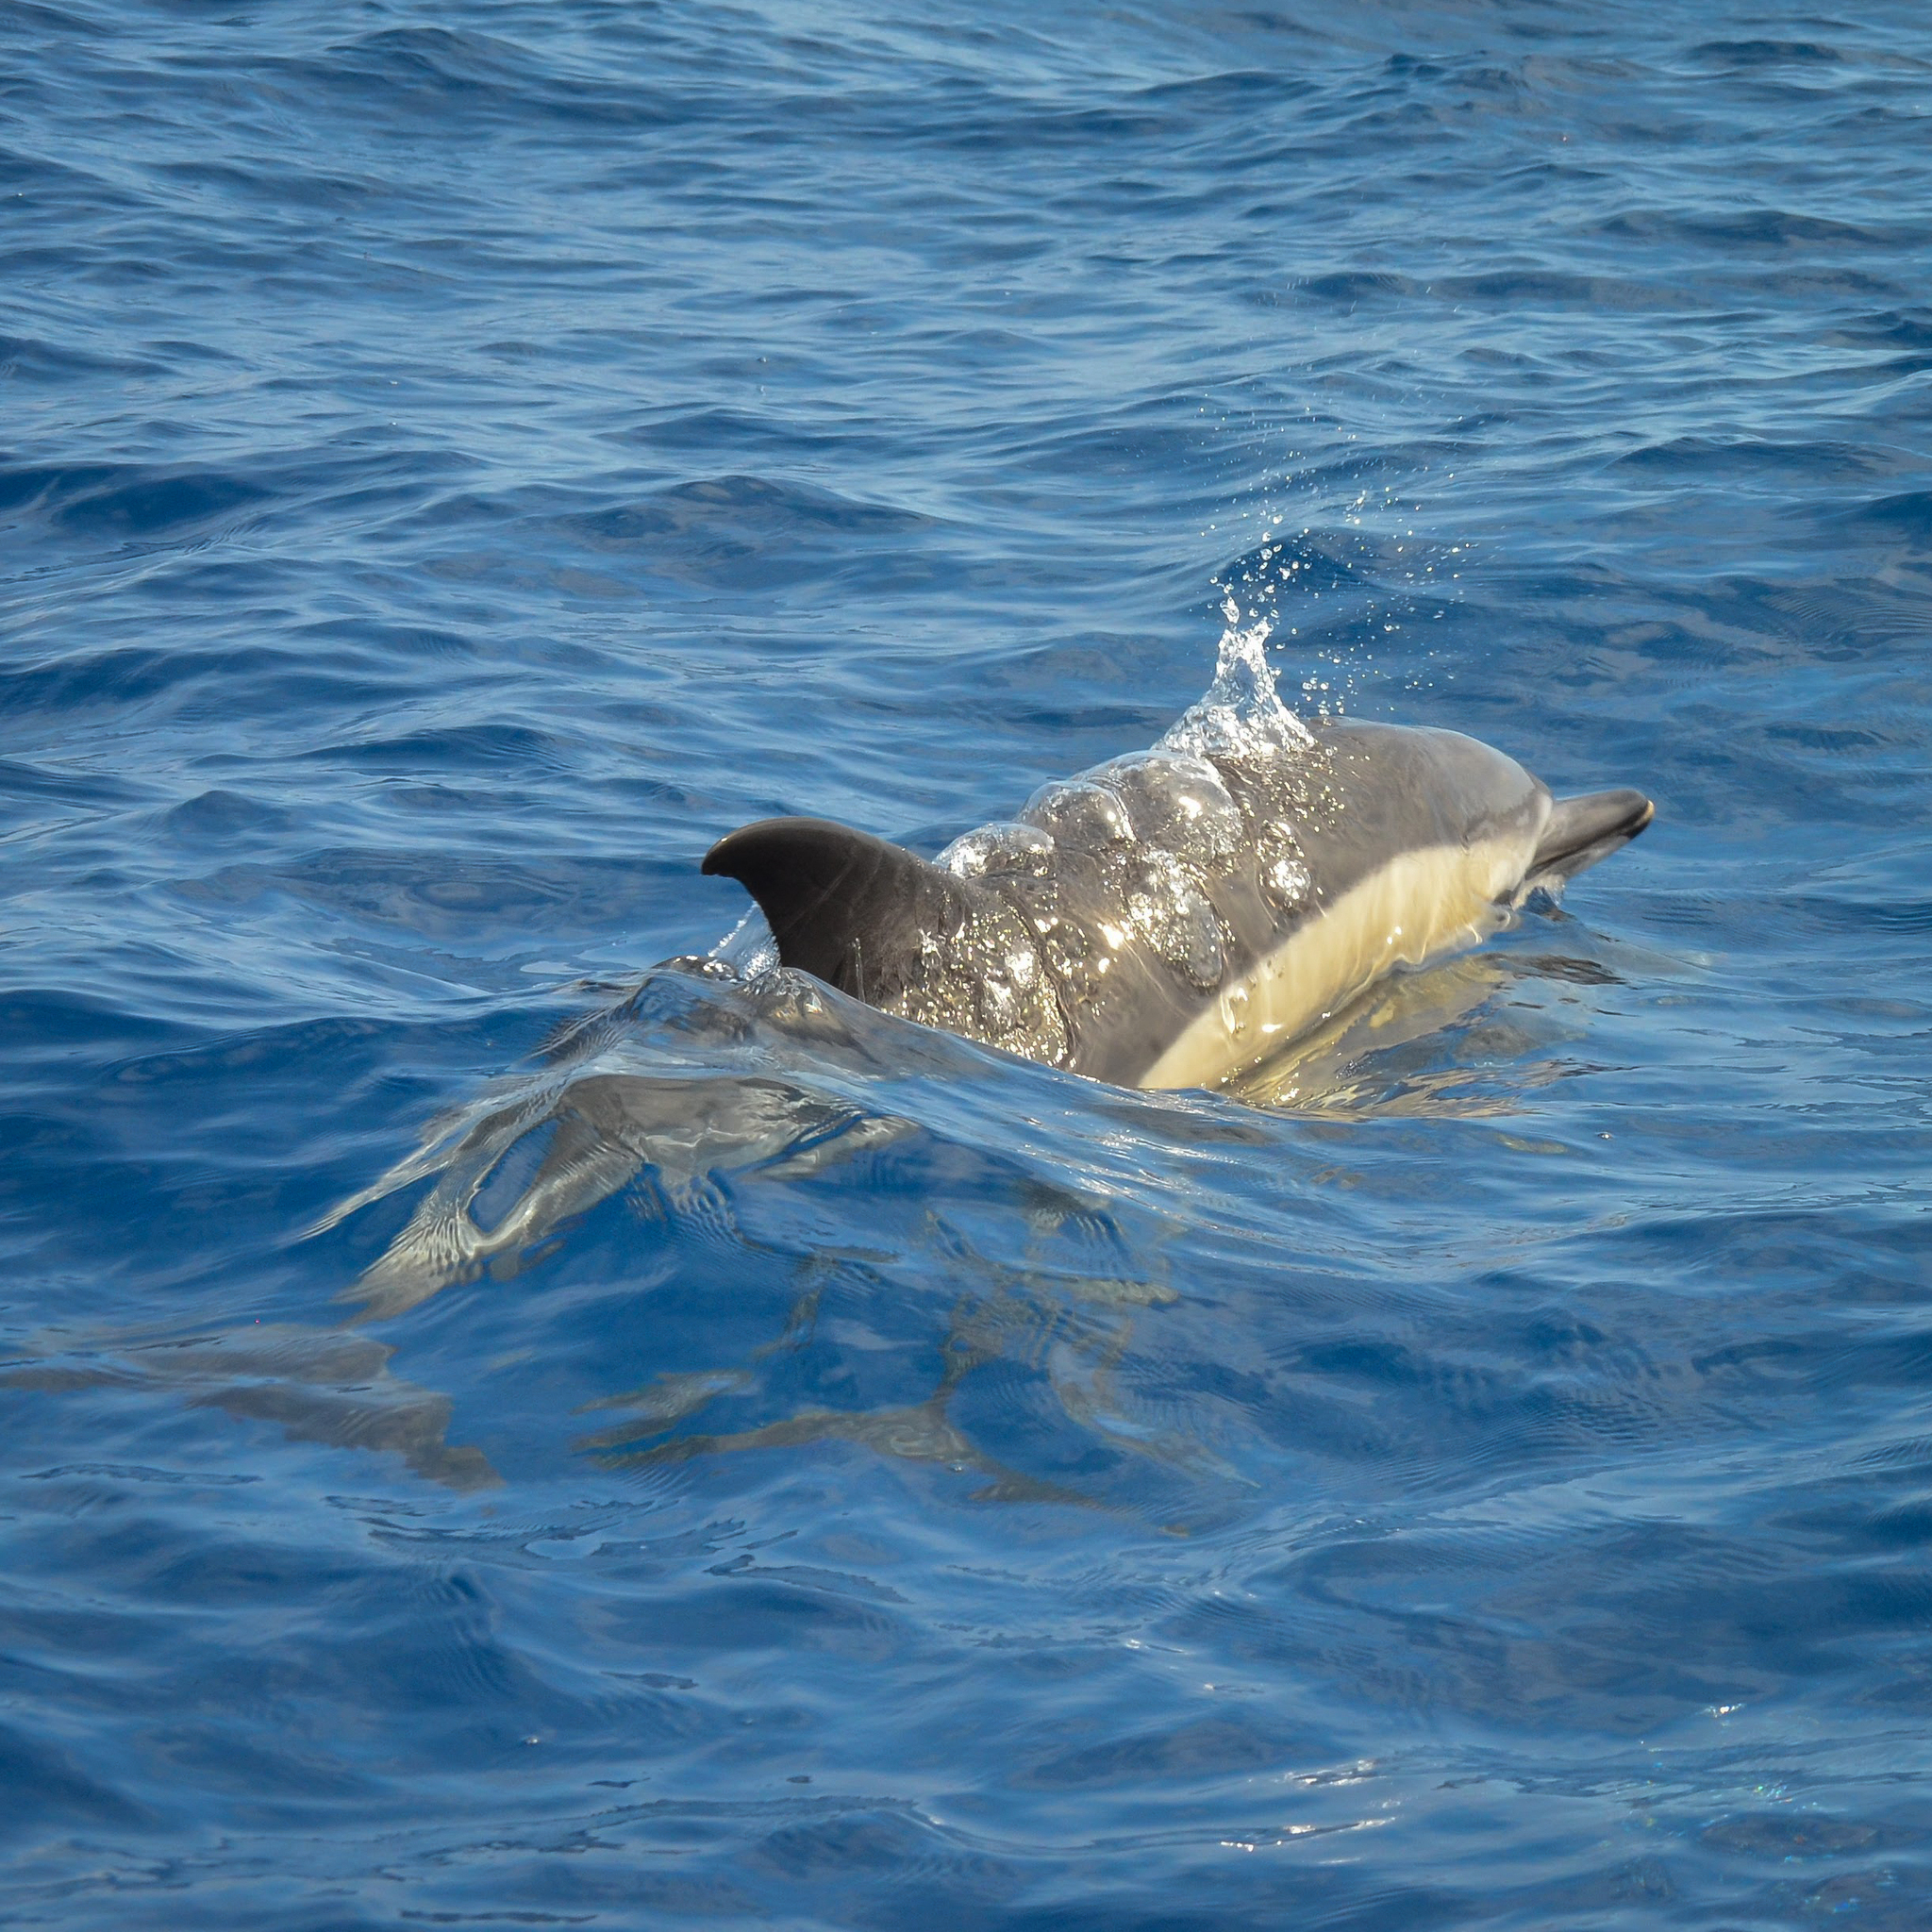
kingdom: Animalia
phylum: Chordata
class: Mammalia
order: Cetacea
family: Delphinidae
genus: Delphinus
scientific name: Delphinus delphis
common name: Common dolphin
